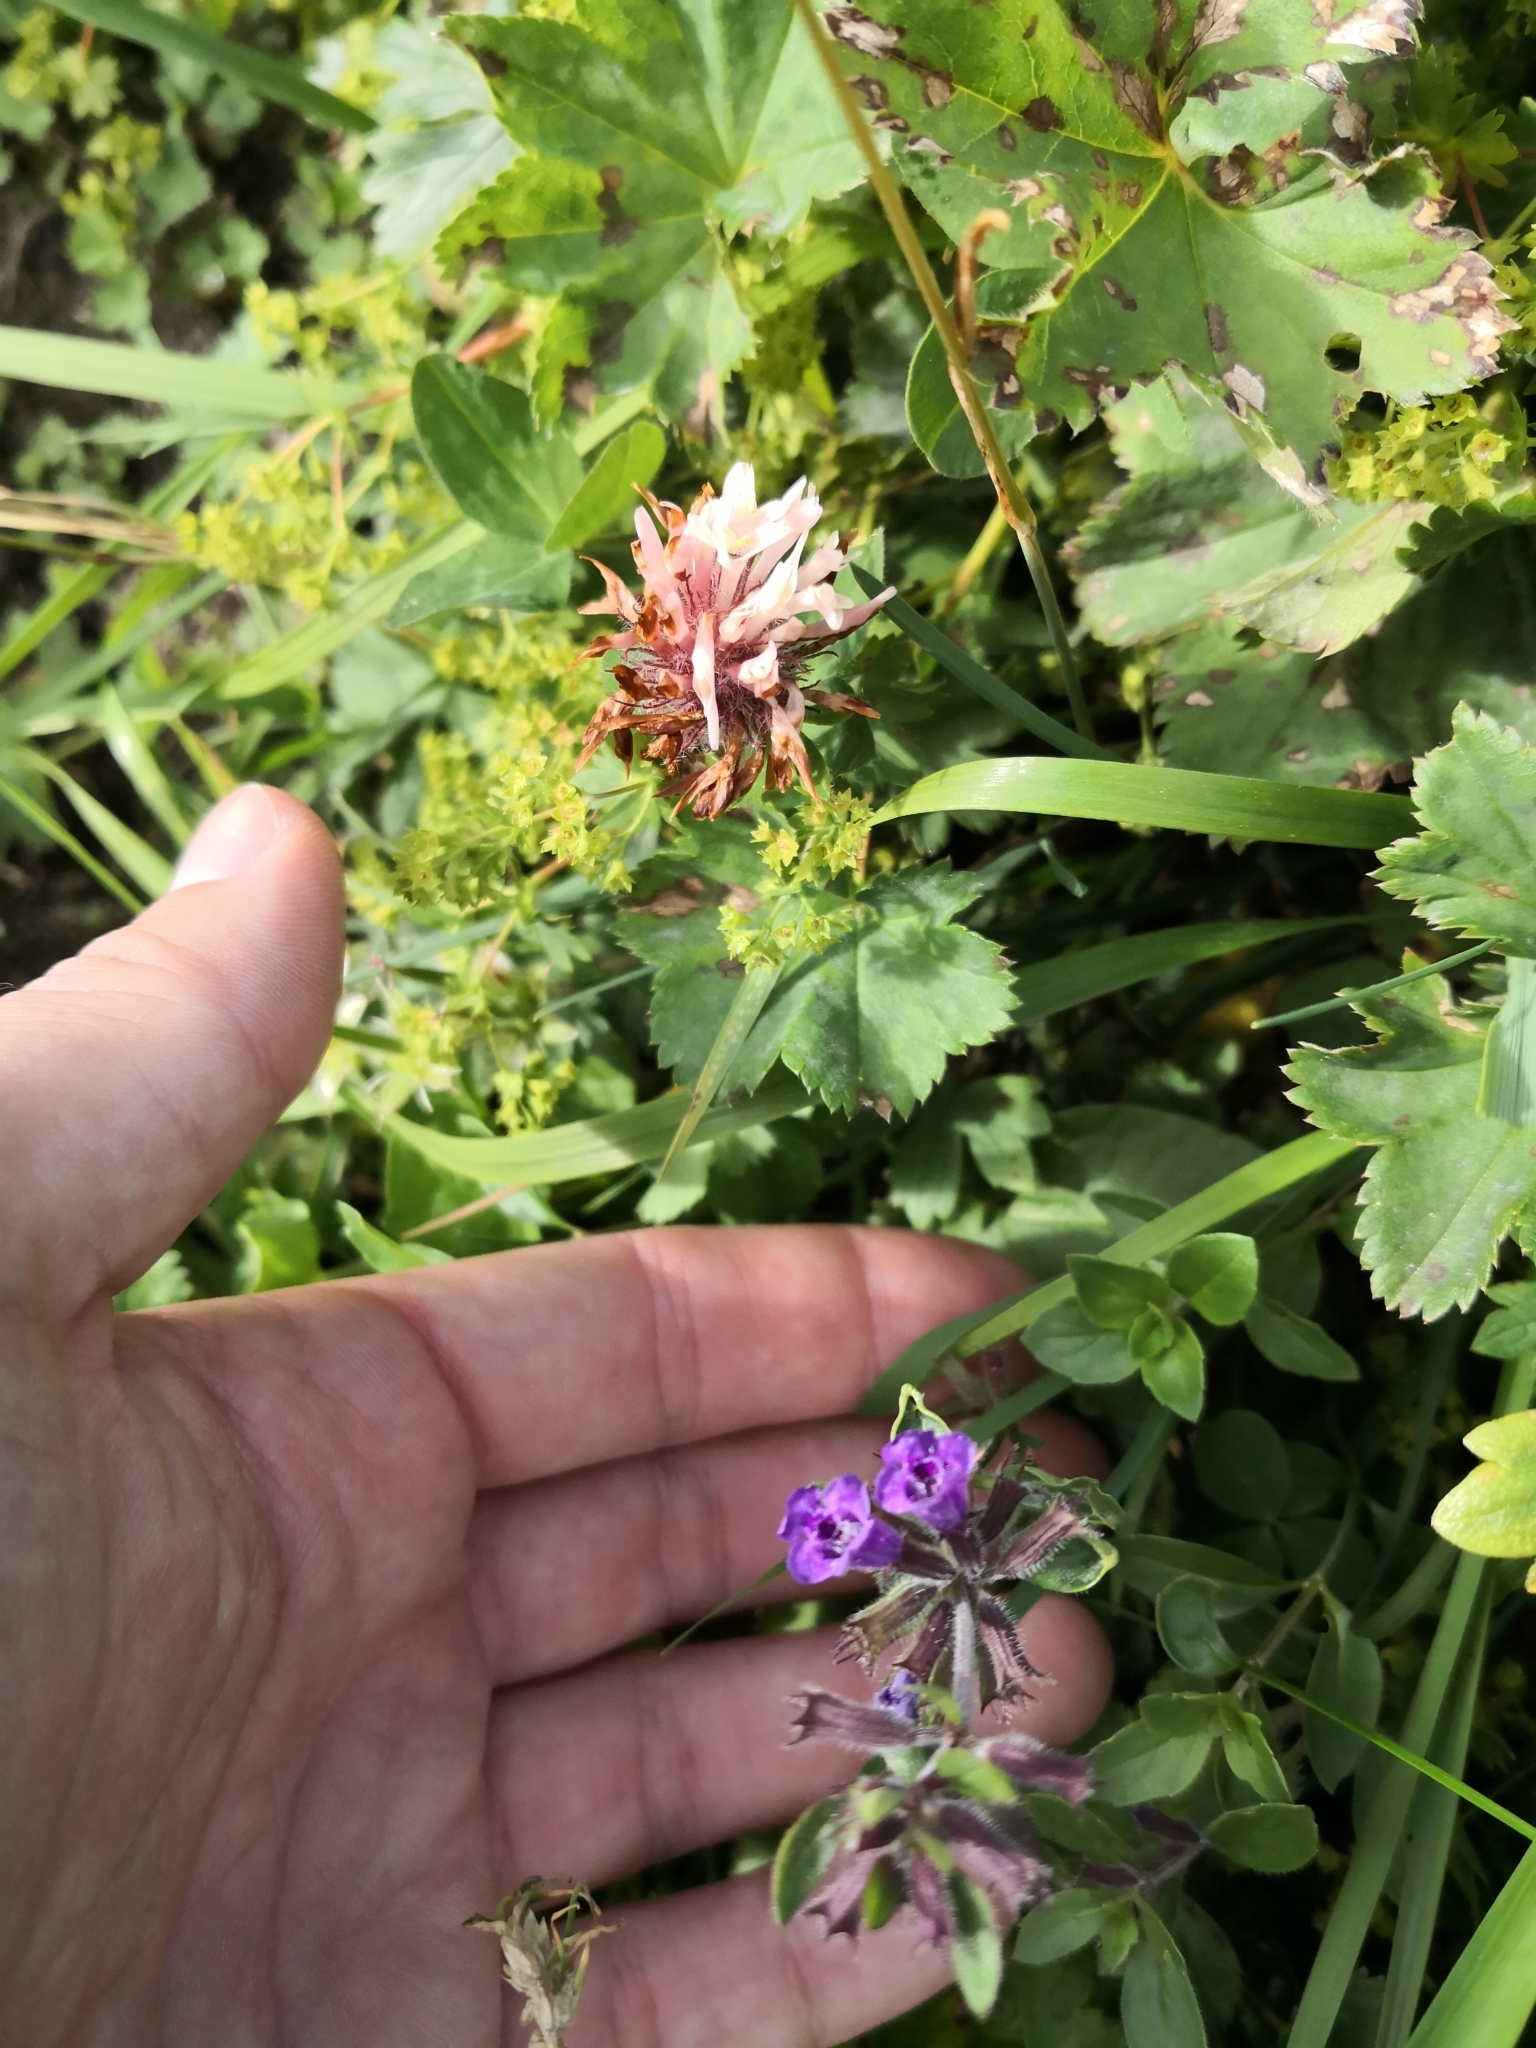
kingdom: Plantae
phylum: Tracheophyta
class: Magnoliopsida
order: Lamiales
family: Lamiaceae
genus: Clinopodium
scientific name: Clinopodium alpinum
